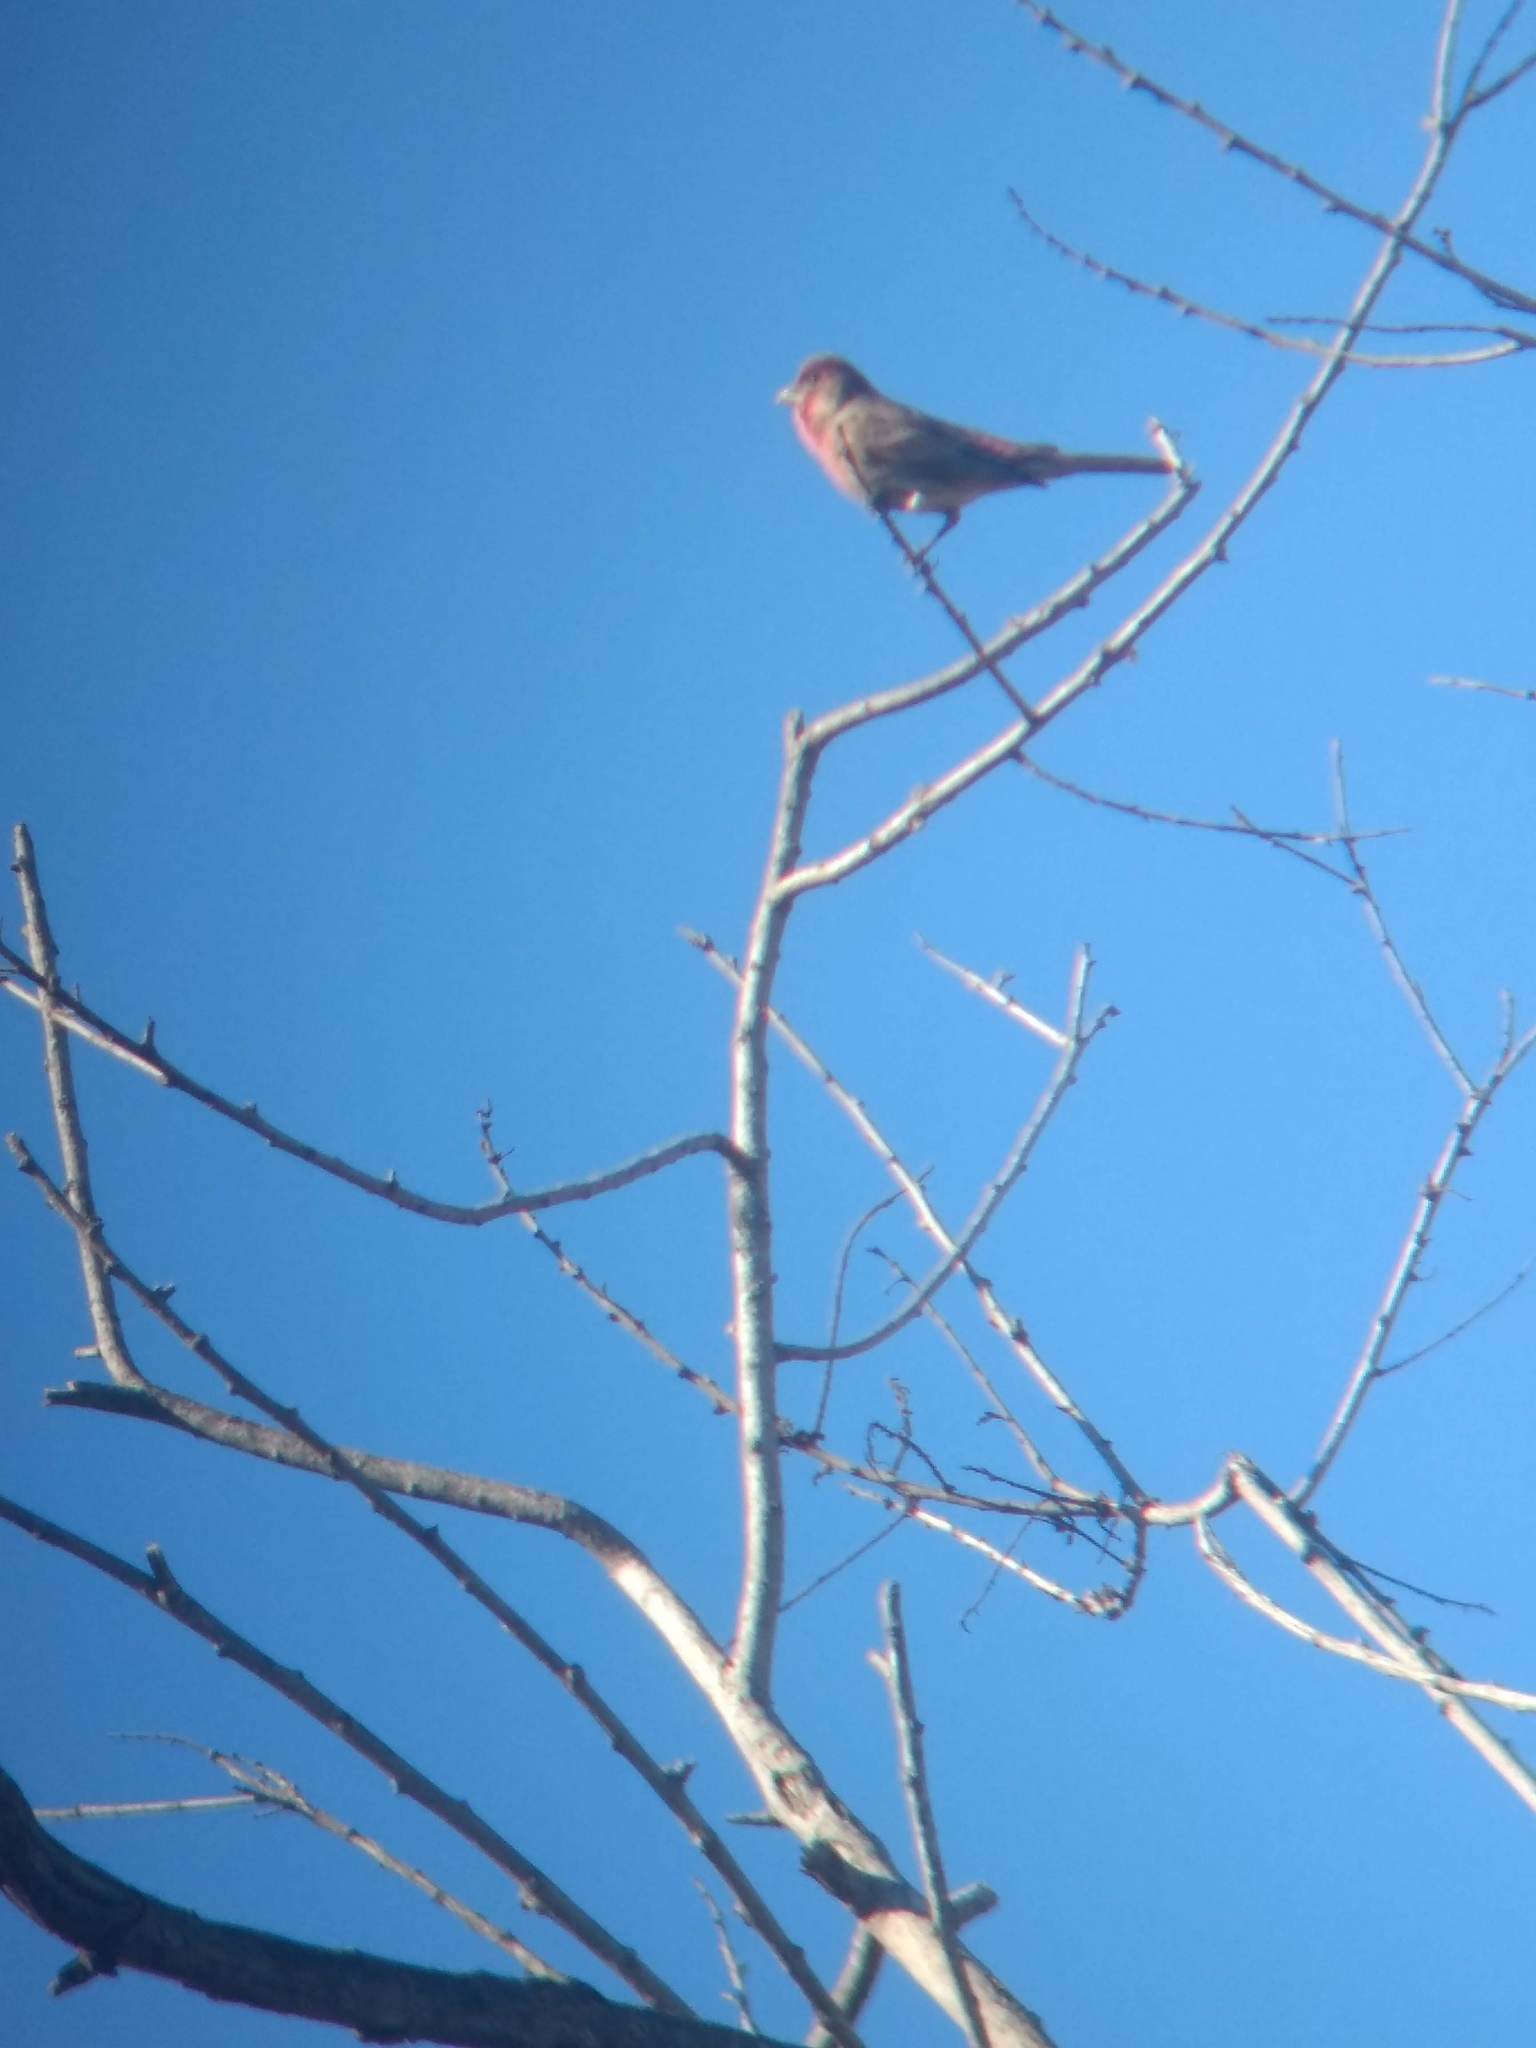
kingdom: Animalia
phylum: Chordata
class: Aves
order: Passeriformes
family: Fringillidae
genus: Haemorhous
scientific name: Haemorhous mexicanus
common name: House finch
